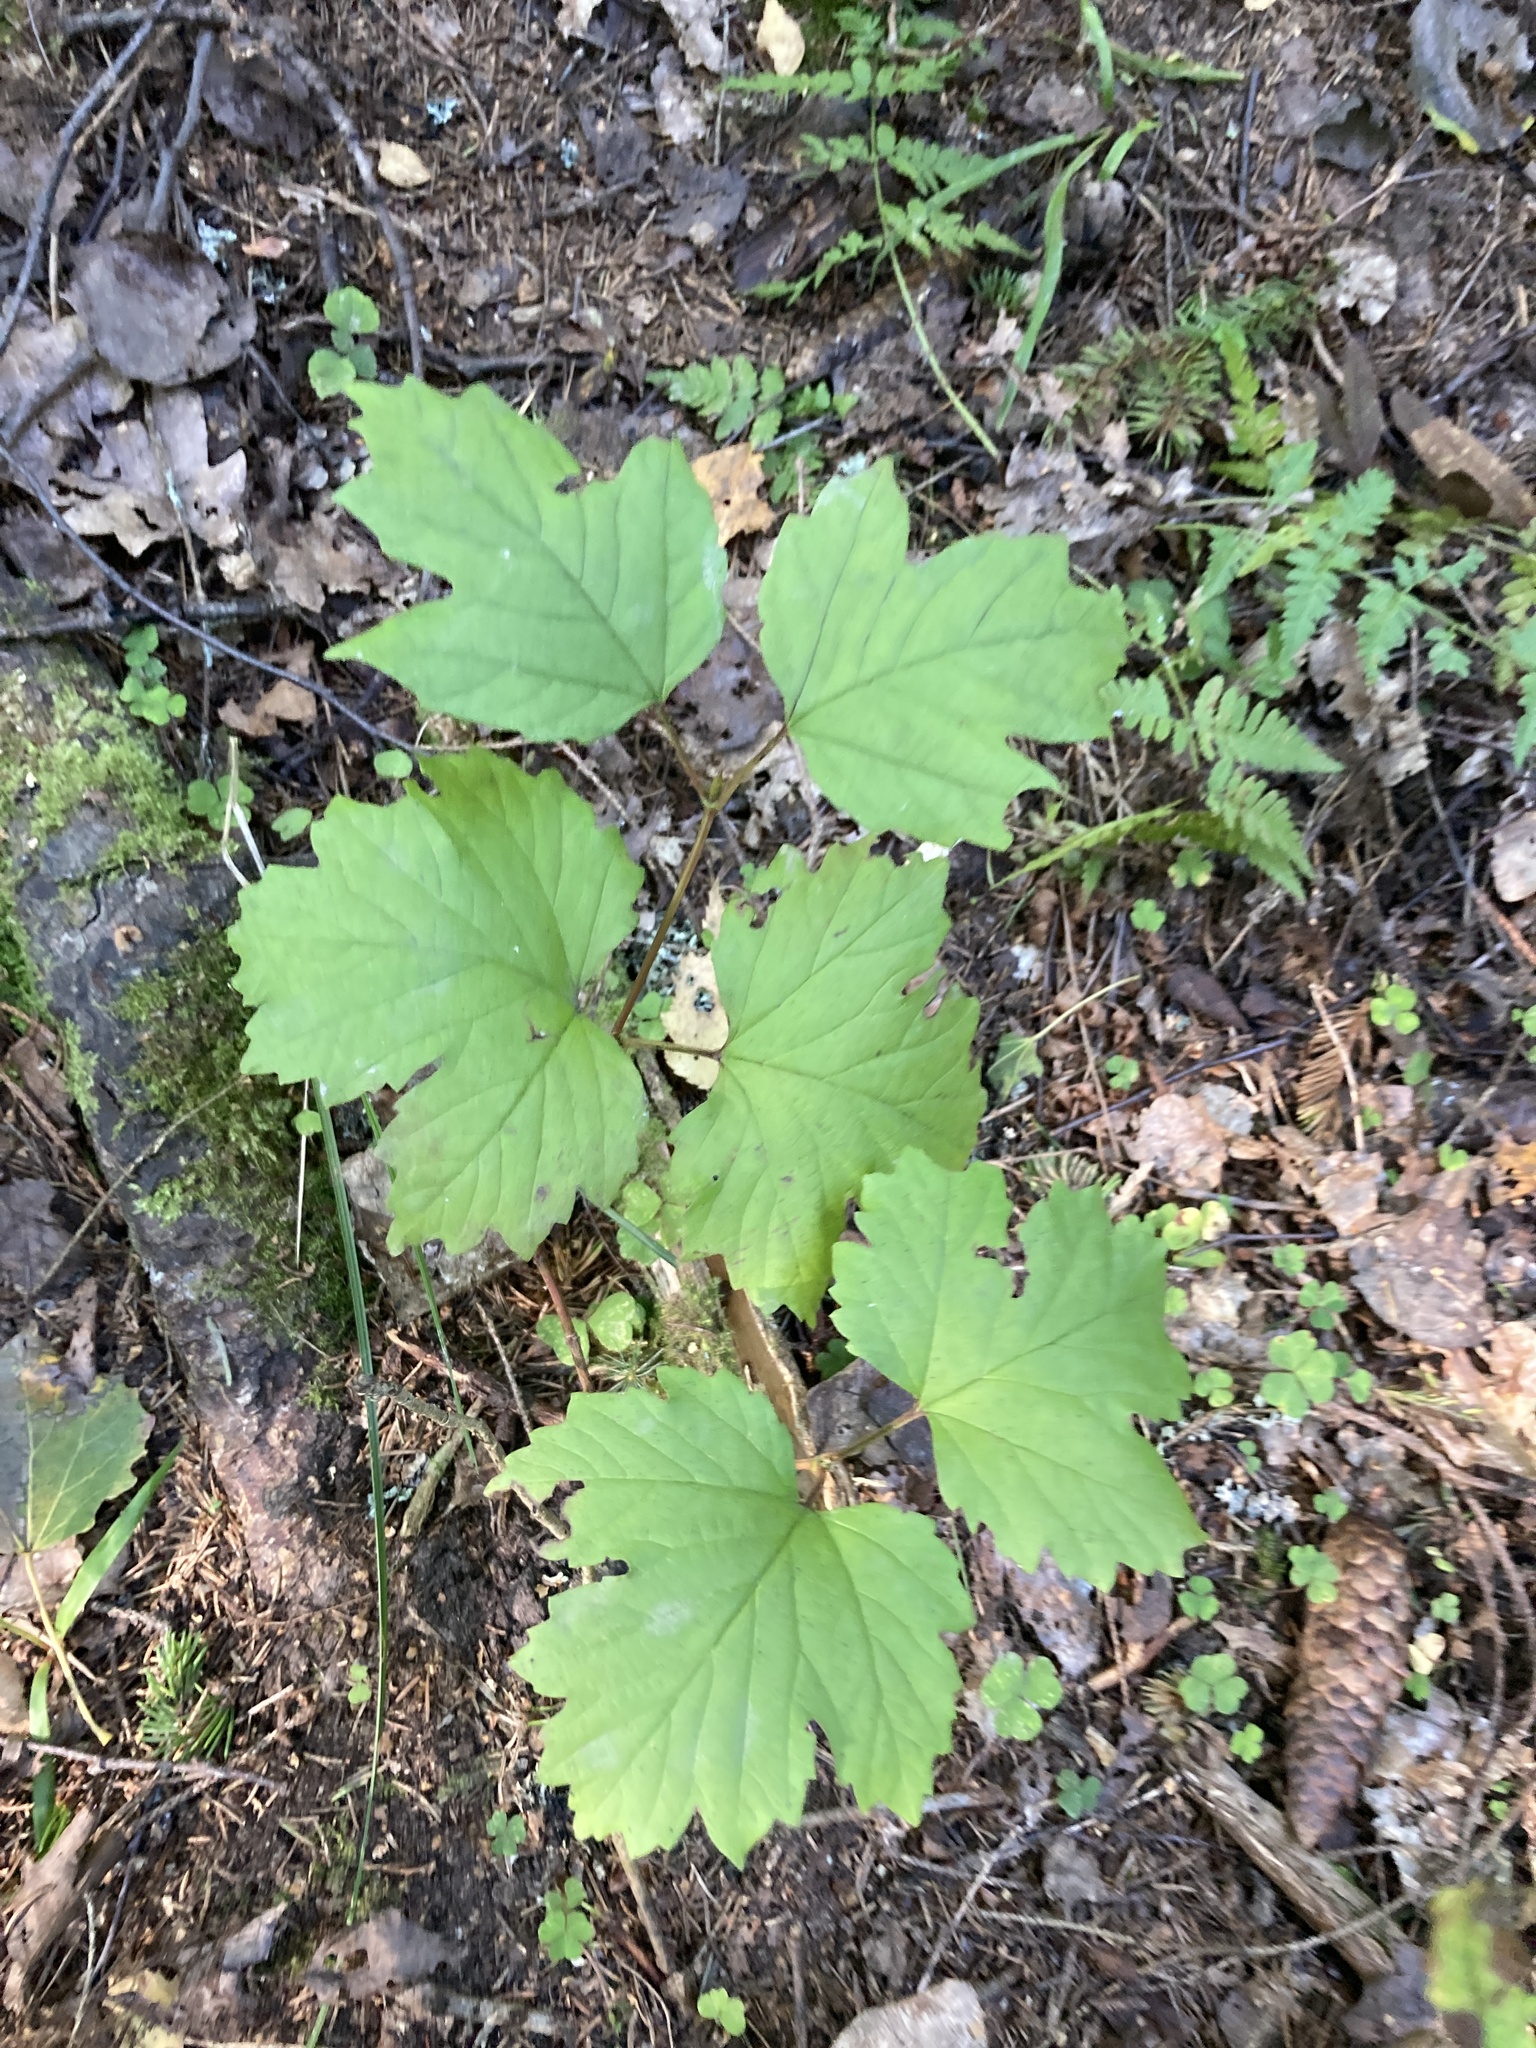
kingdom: Plantae
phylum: Tracheophyta
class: Magnoliopsida
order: Dipsacales
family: Viburnaceae
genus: Viburnum
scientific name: Viburnum opulus
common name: Guelder-rose
